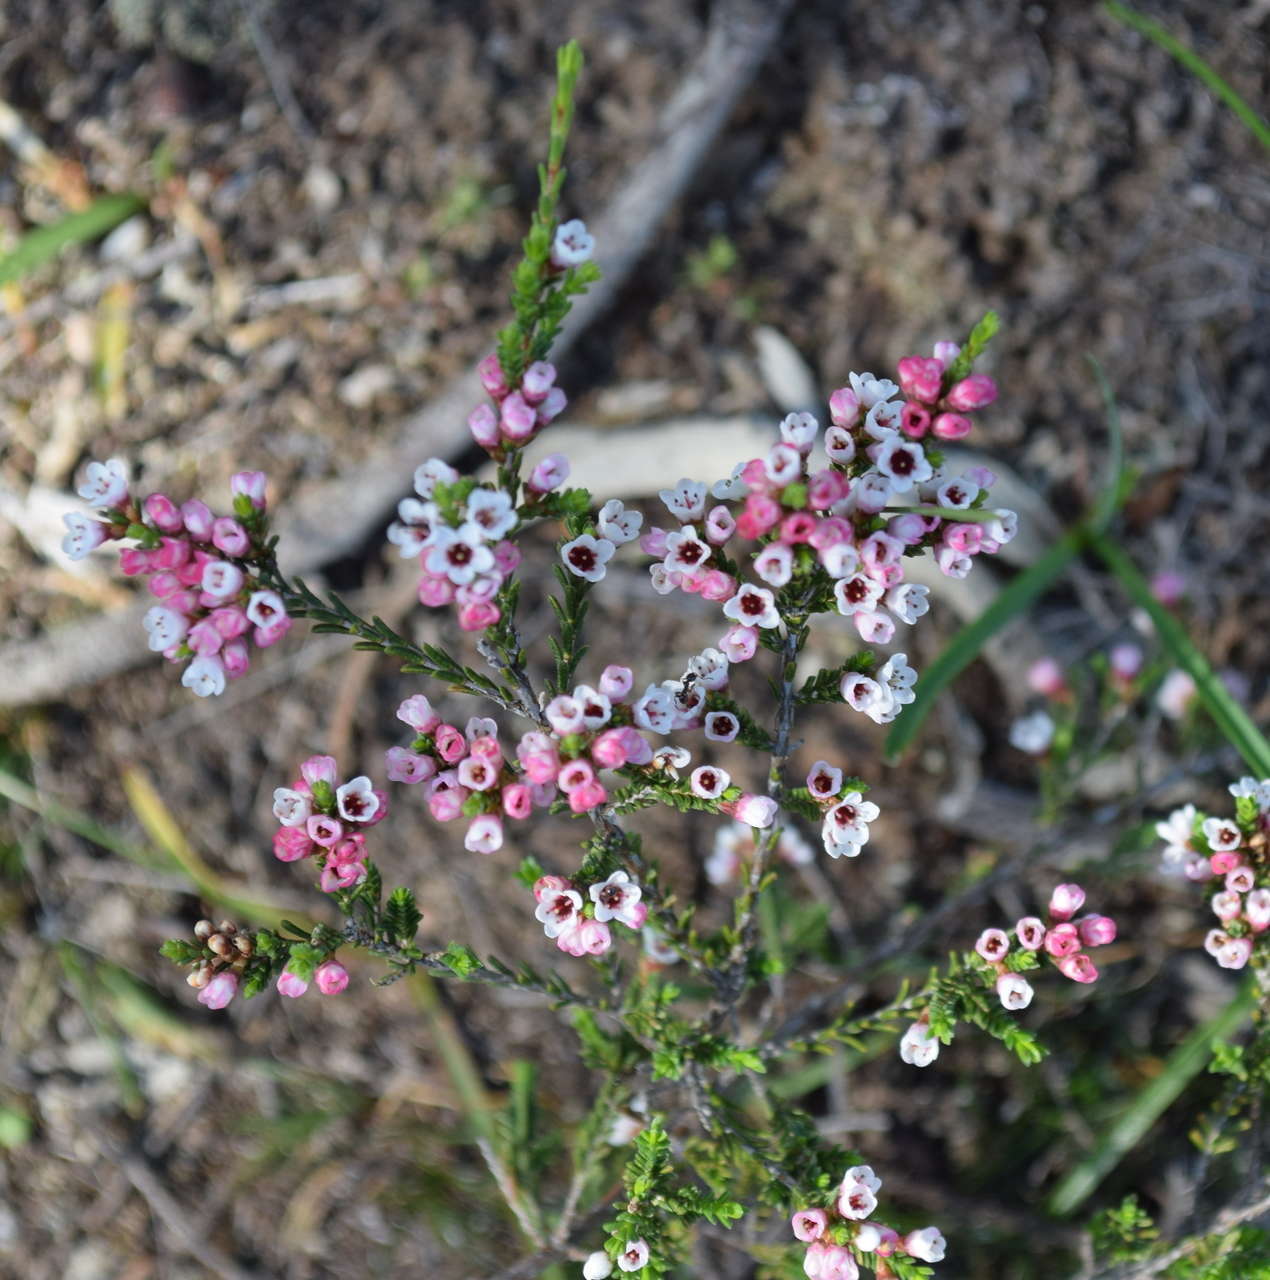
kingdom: Plantae
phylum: Tracheophyta
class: Magnoliopsida
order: Myrtales
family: Myrtaceae
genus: Thryptomene
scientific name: Thryptomene calycina
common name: Grampians thryptomene
